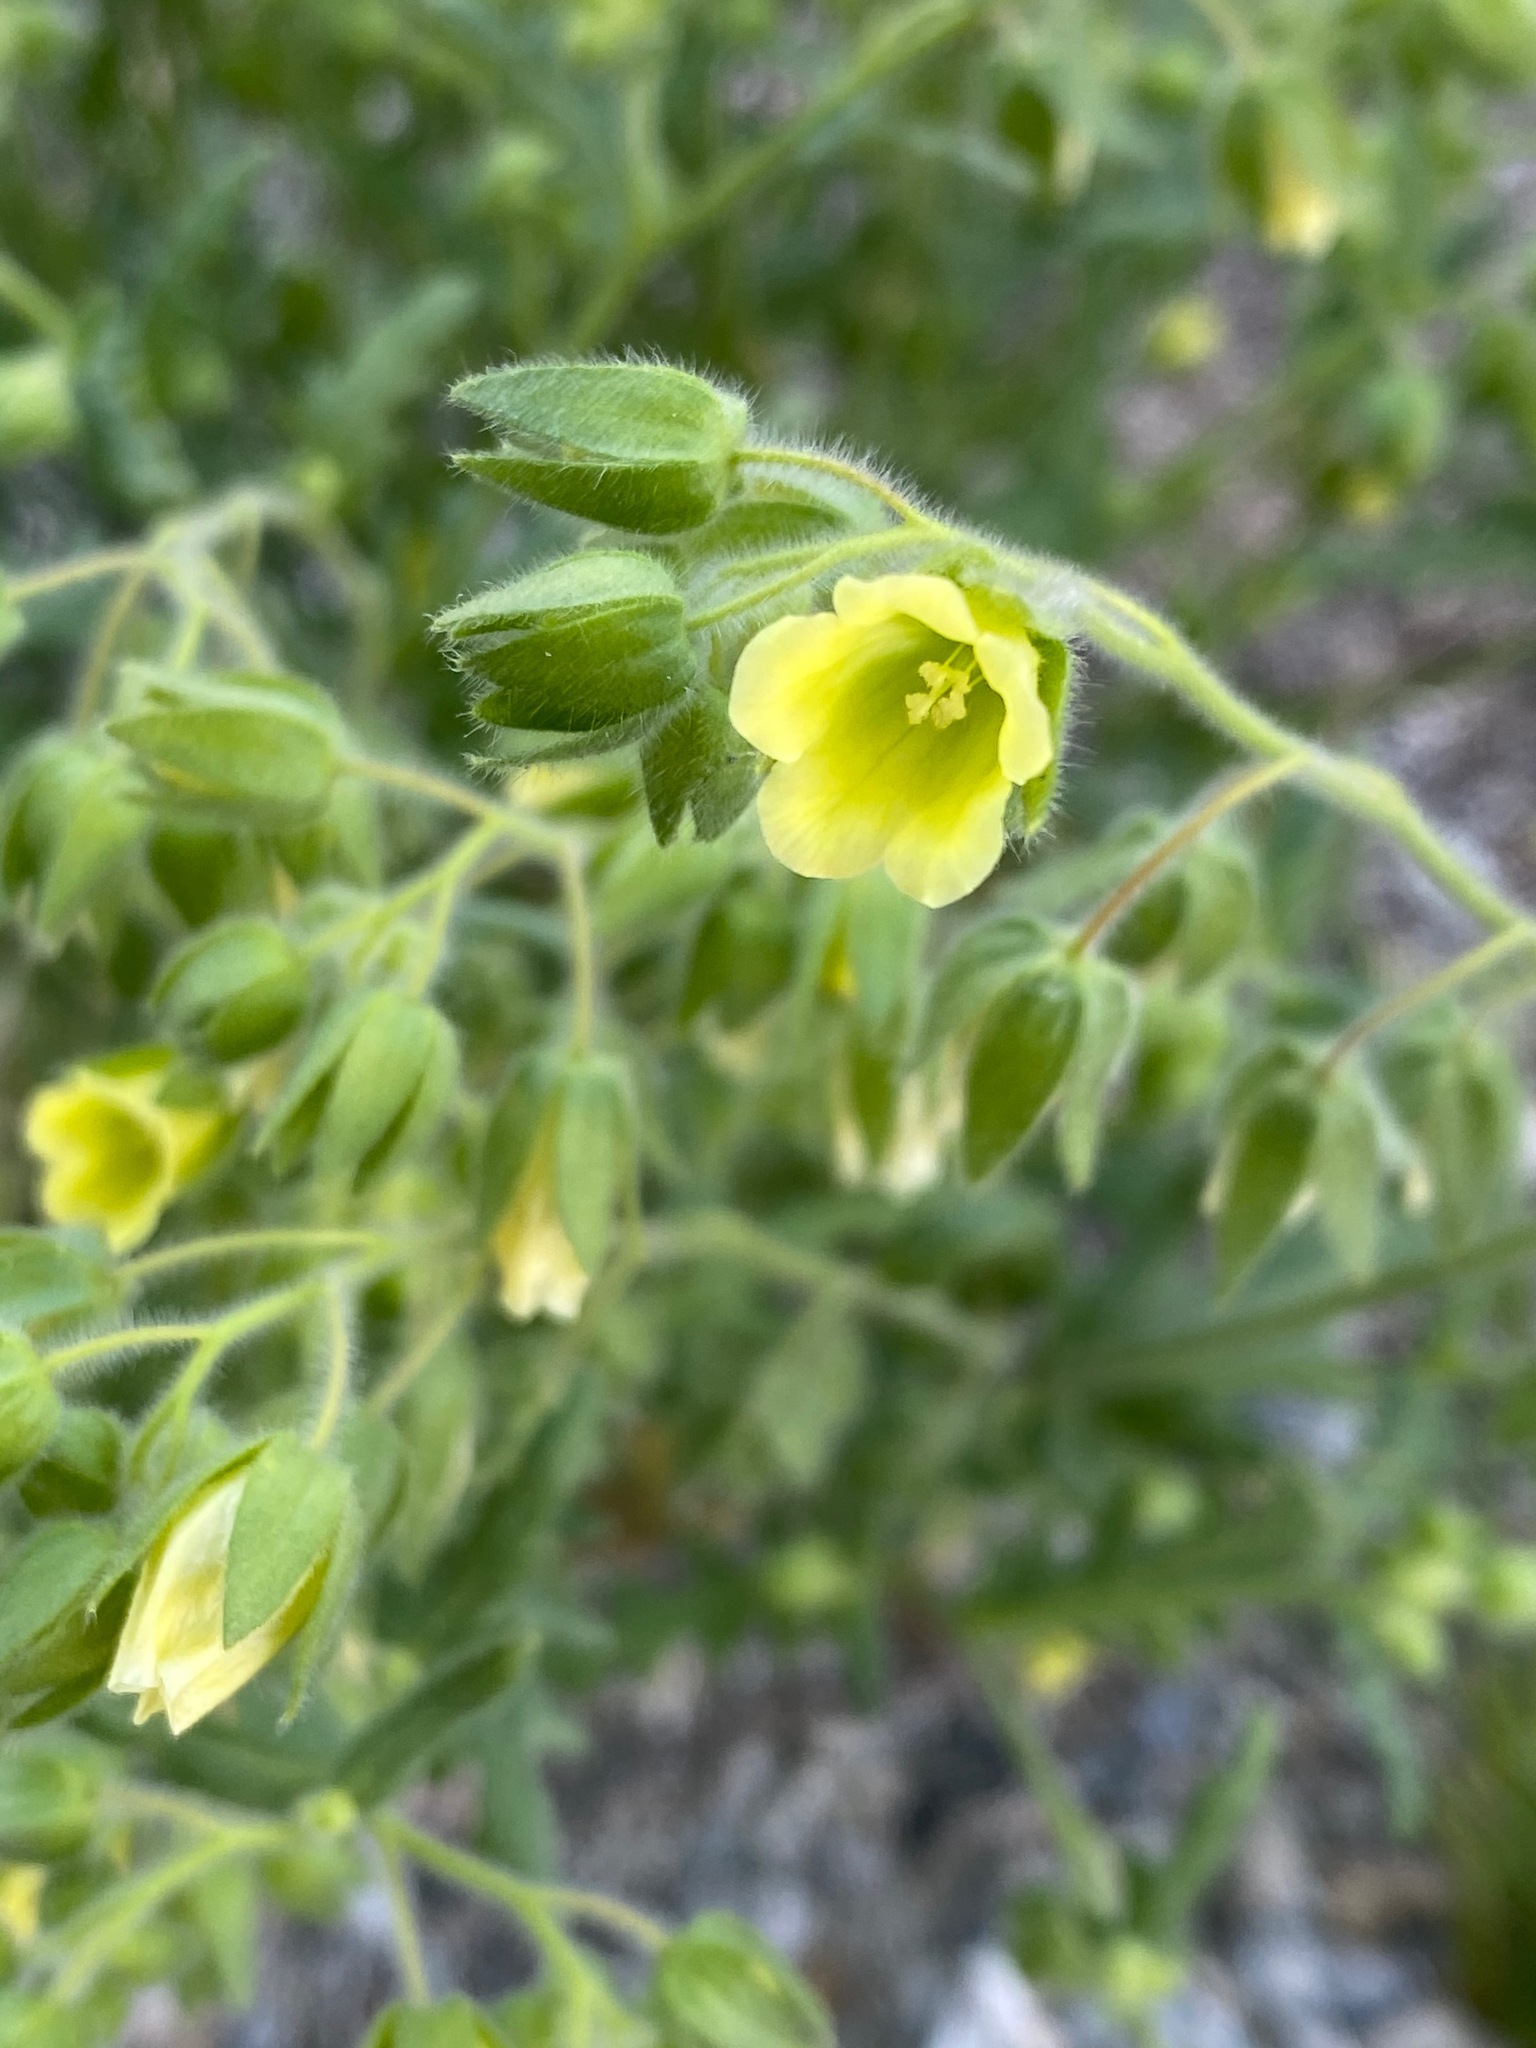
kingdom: Plantae
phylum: Tracheophyta
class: Magnoliopsida
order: Boraginales
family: Hydrophyllaceae
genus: Emmenanthe
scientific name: Emmenanthe penduliflora
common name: Whispering-bells
